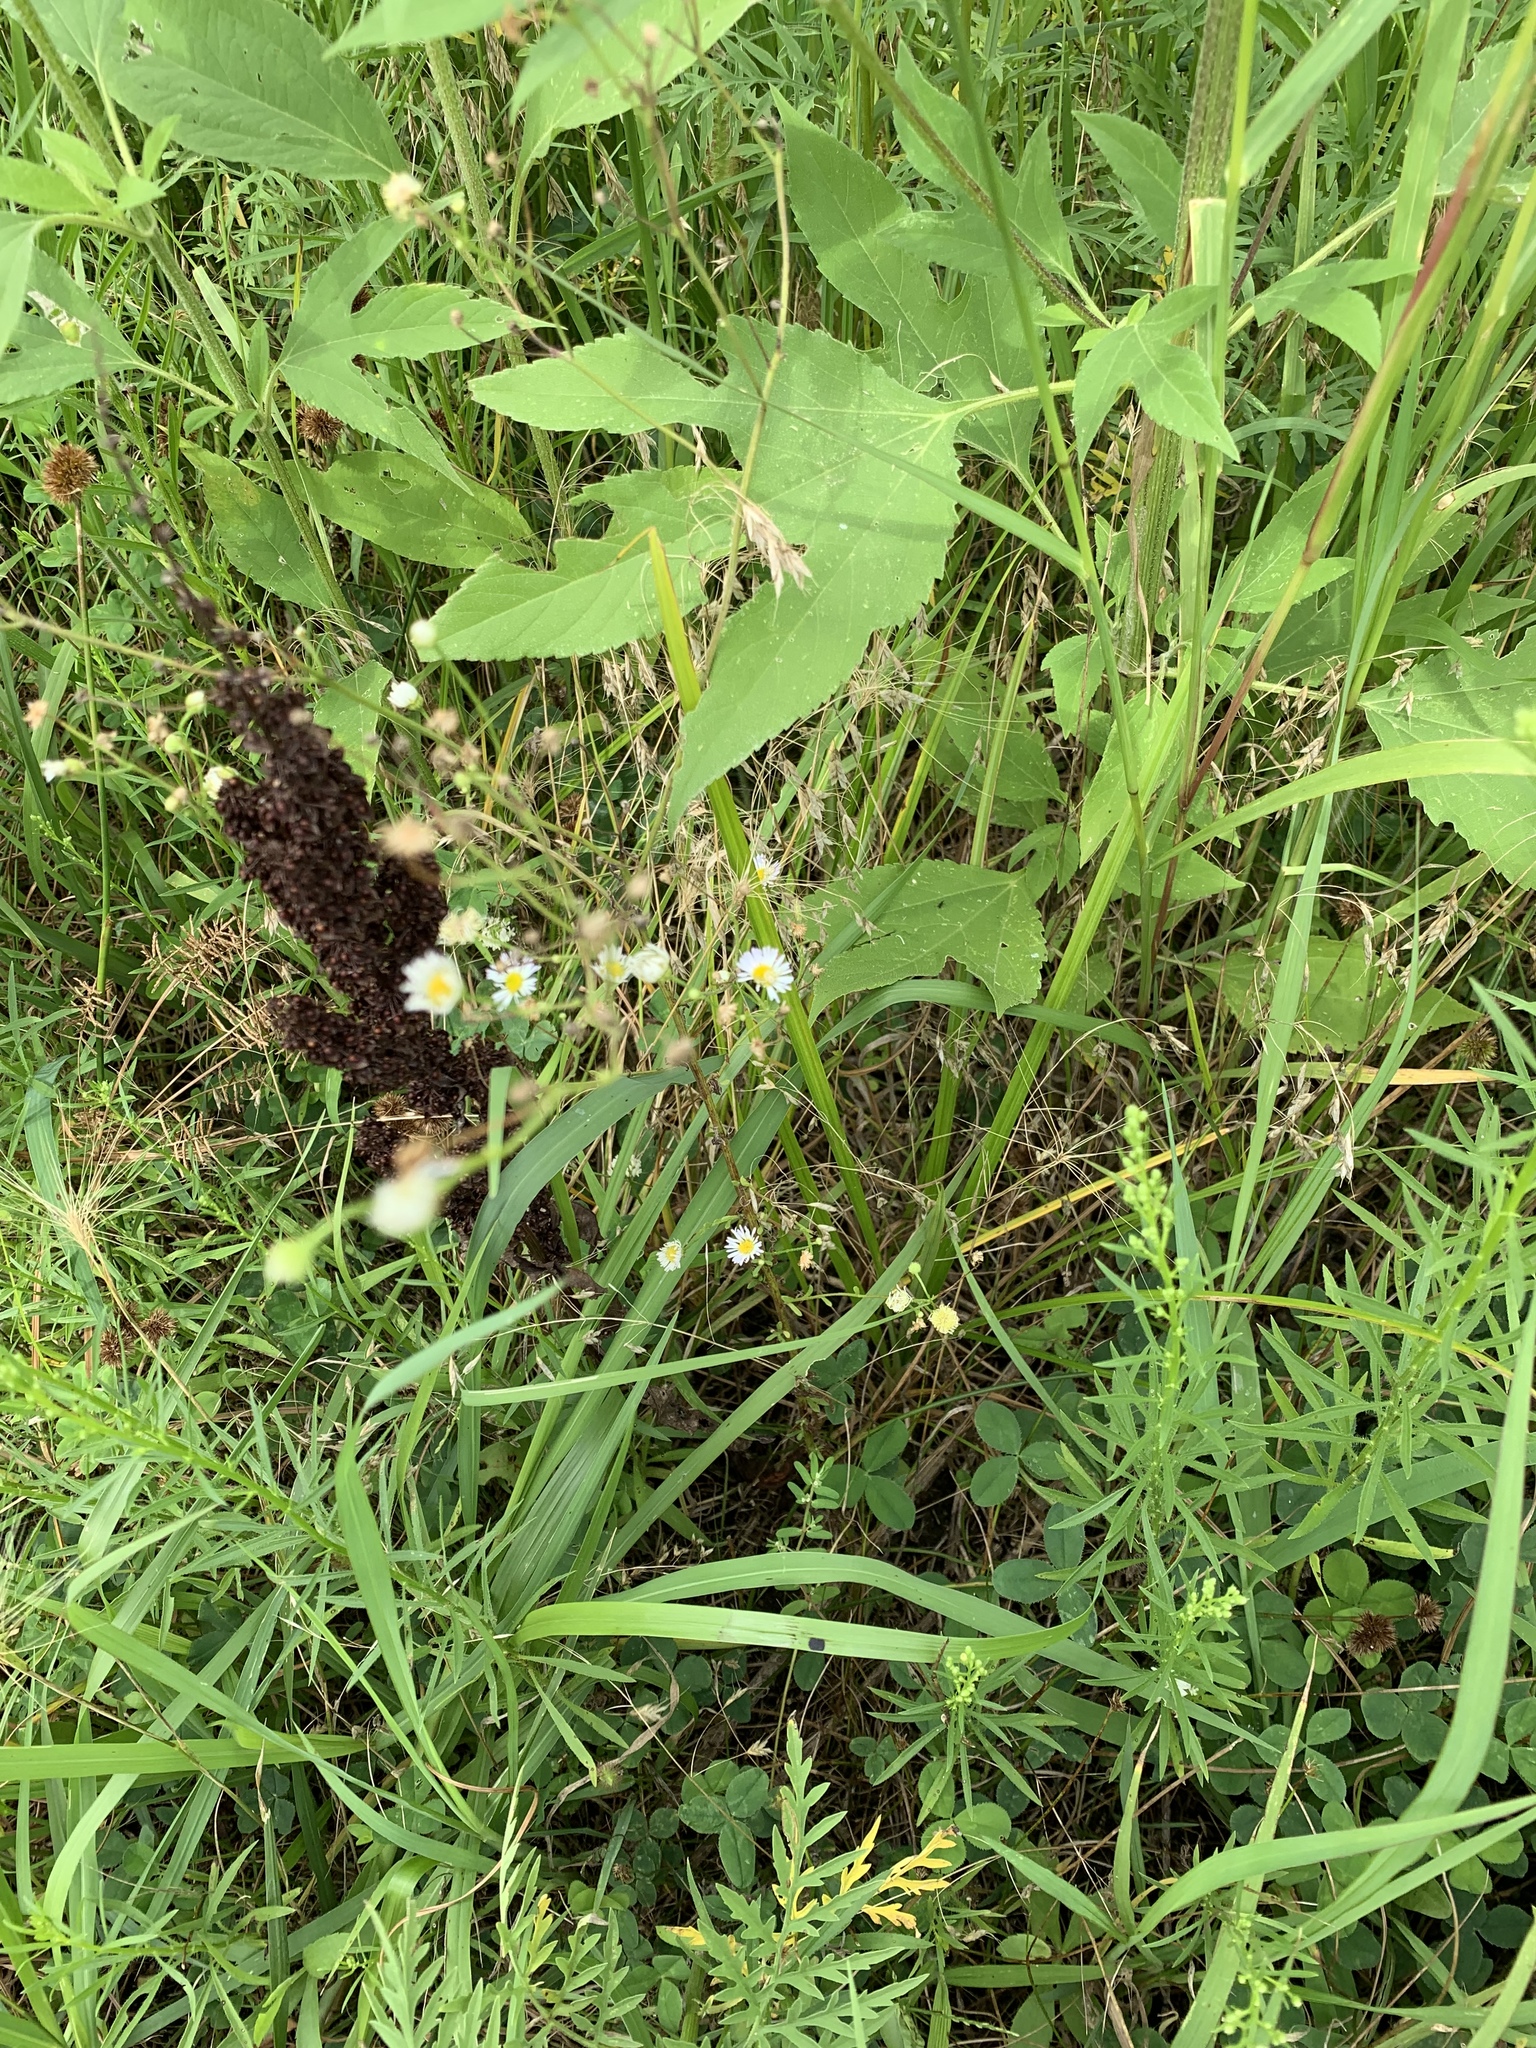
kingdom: Plantae
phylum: Tracheophyta
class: Magnoliopsida
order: Asterales
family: Asteraceae
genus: Ambrosia
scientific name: Ambrosia trifida
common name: Giant ragweed
